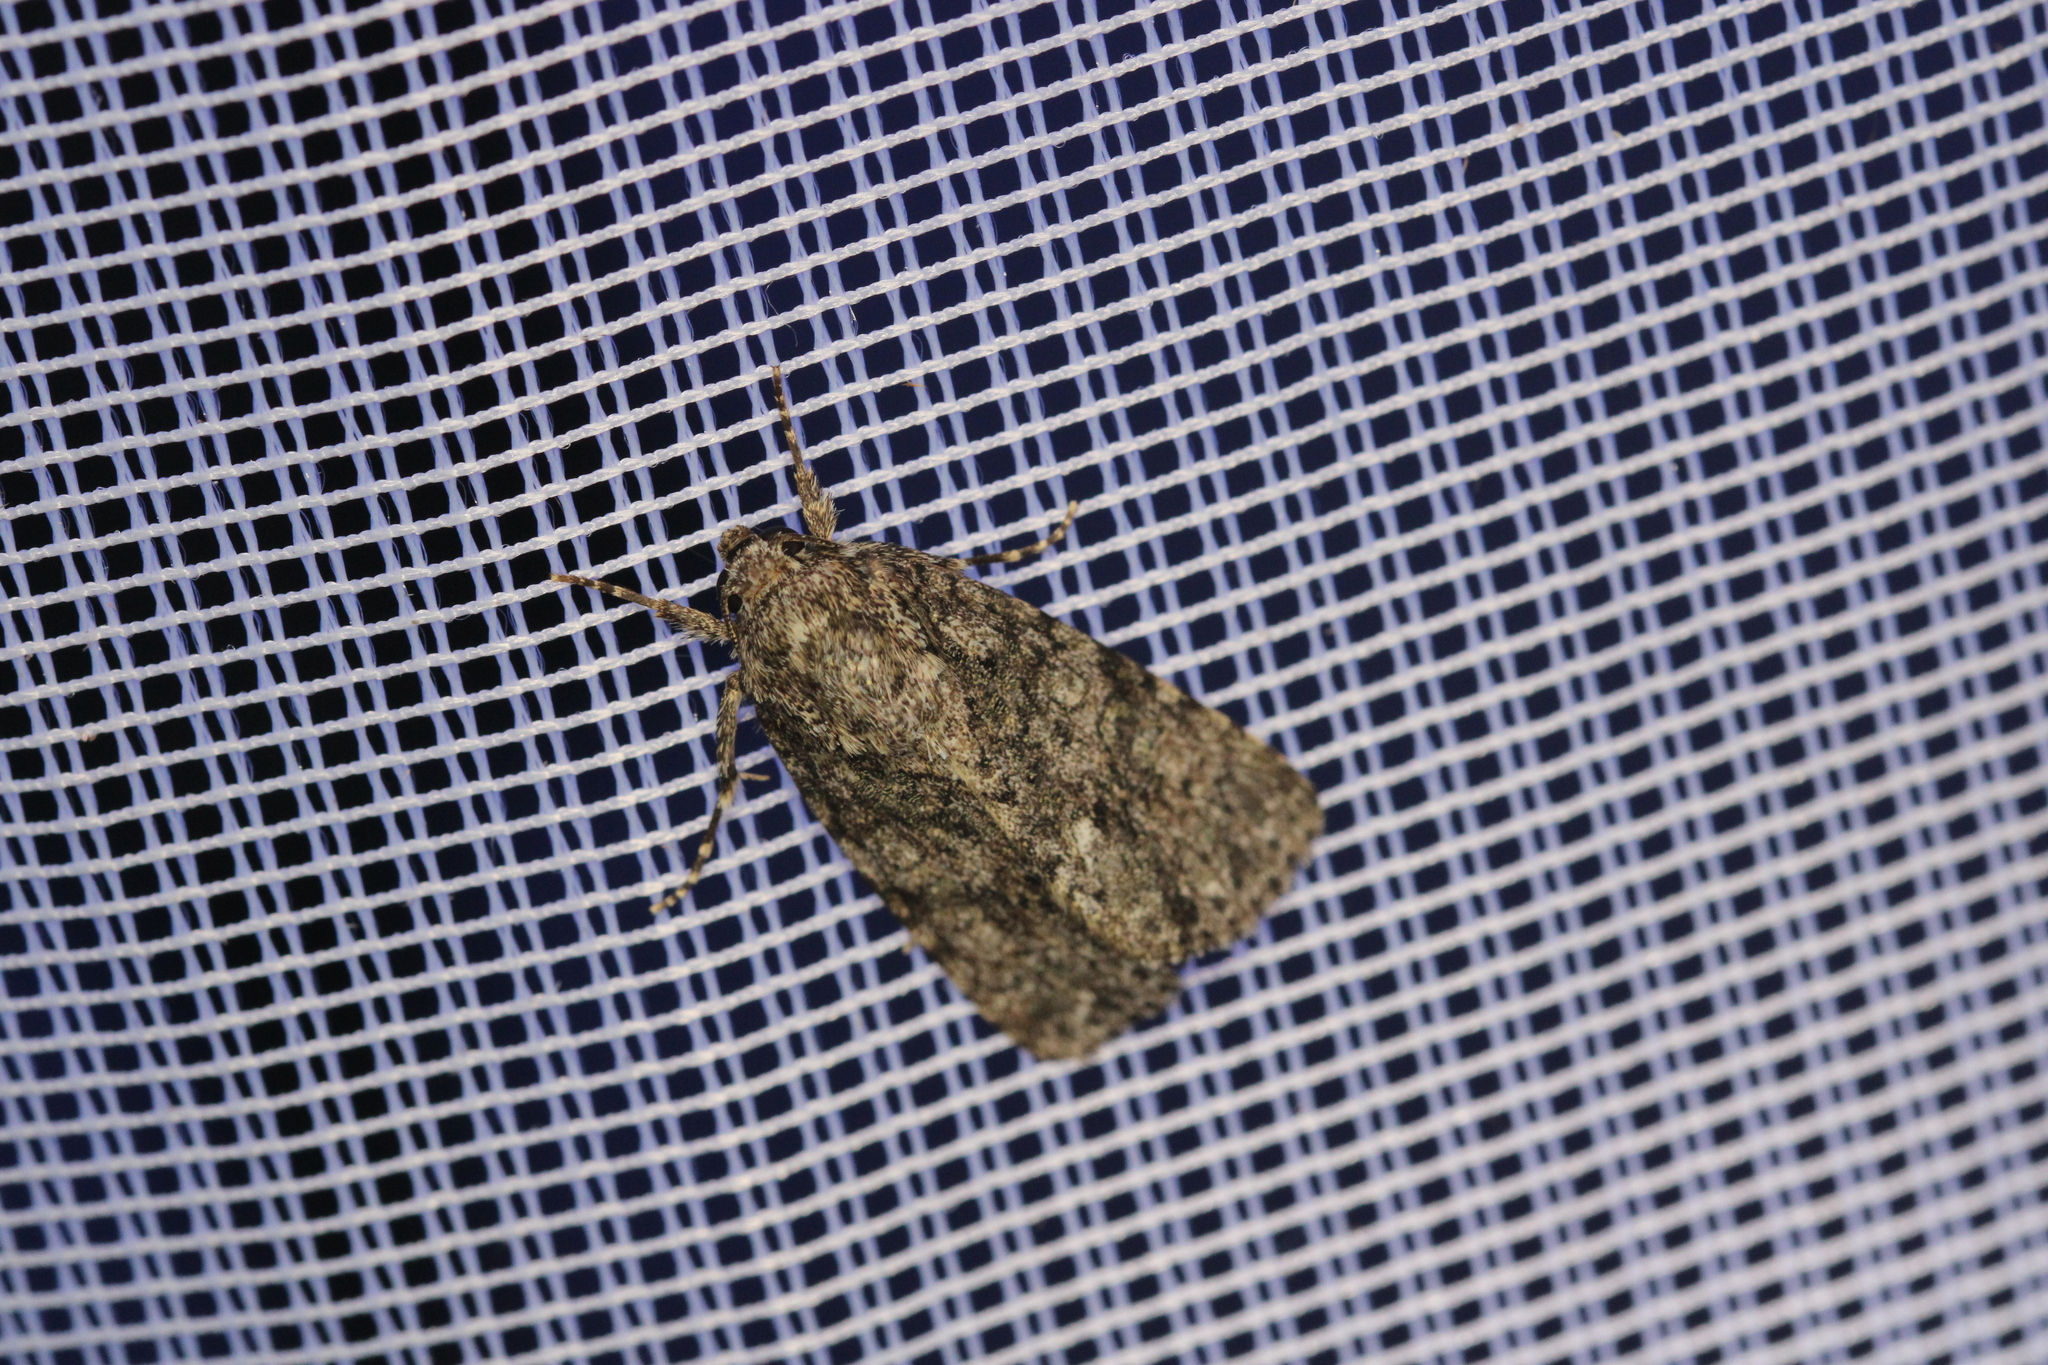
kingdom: Animalia
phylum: Arthropoda
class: Insecta
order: Lepidoptera
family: Noctuidae
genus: Acronicta
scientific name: Acronicta rumicis
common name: Knot grass
